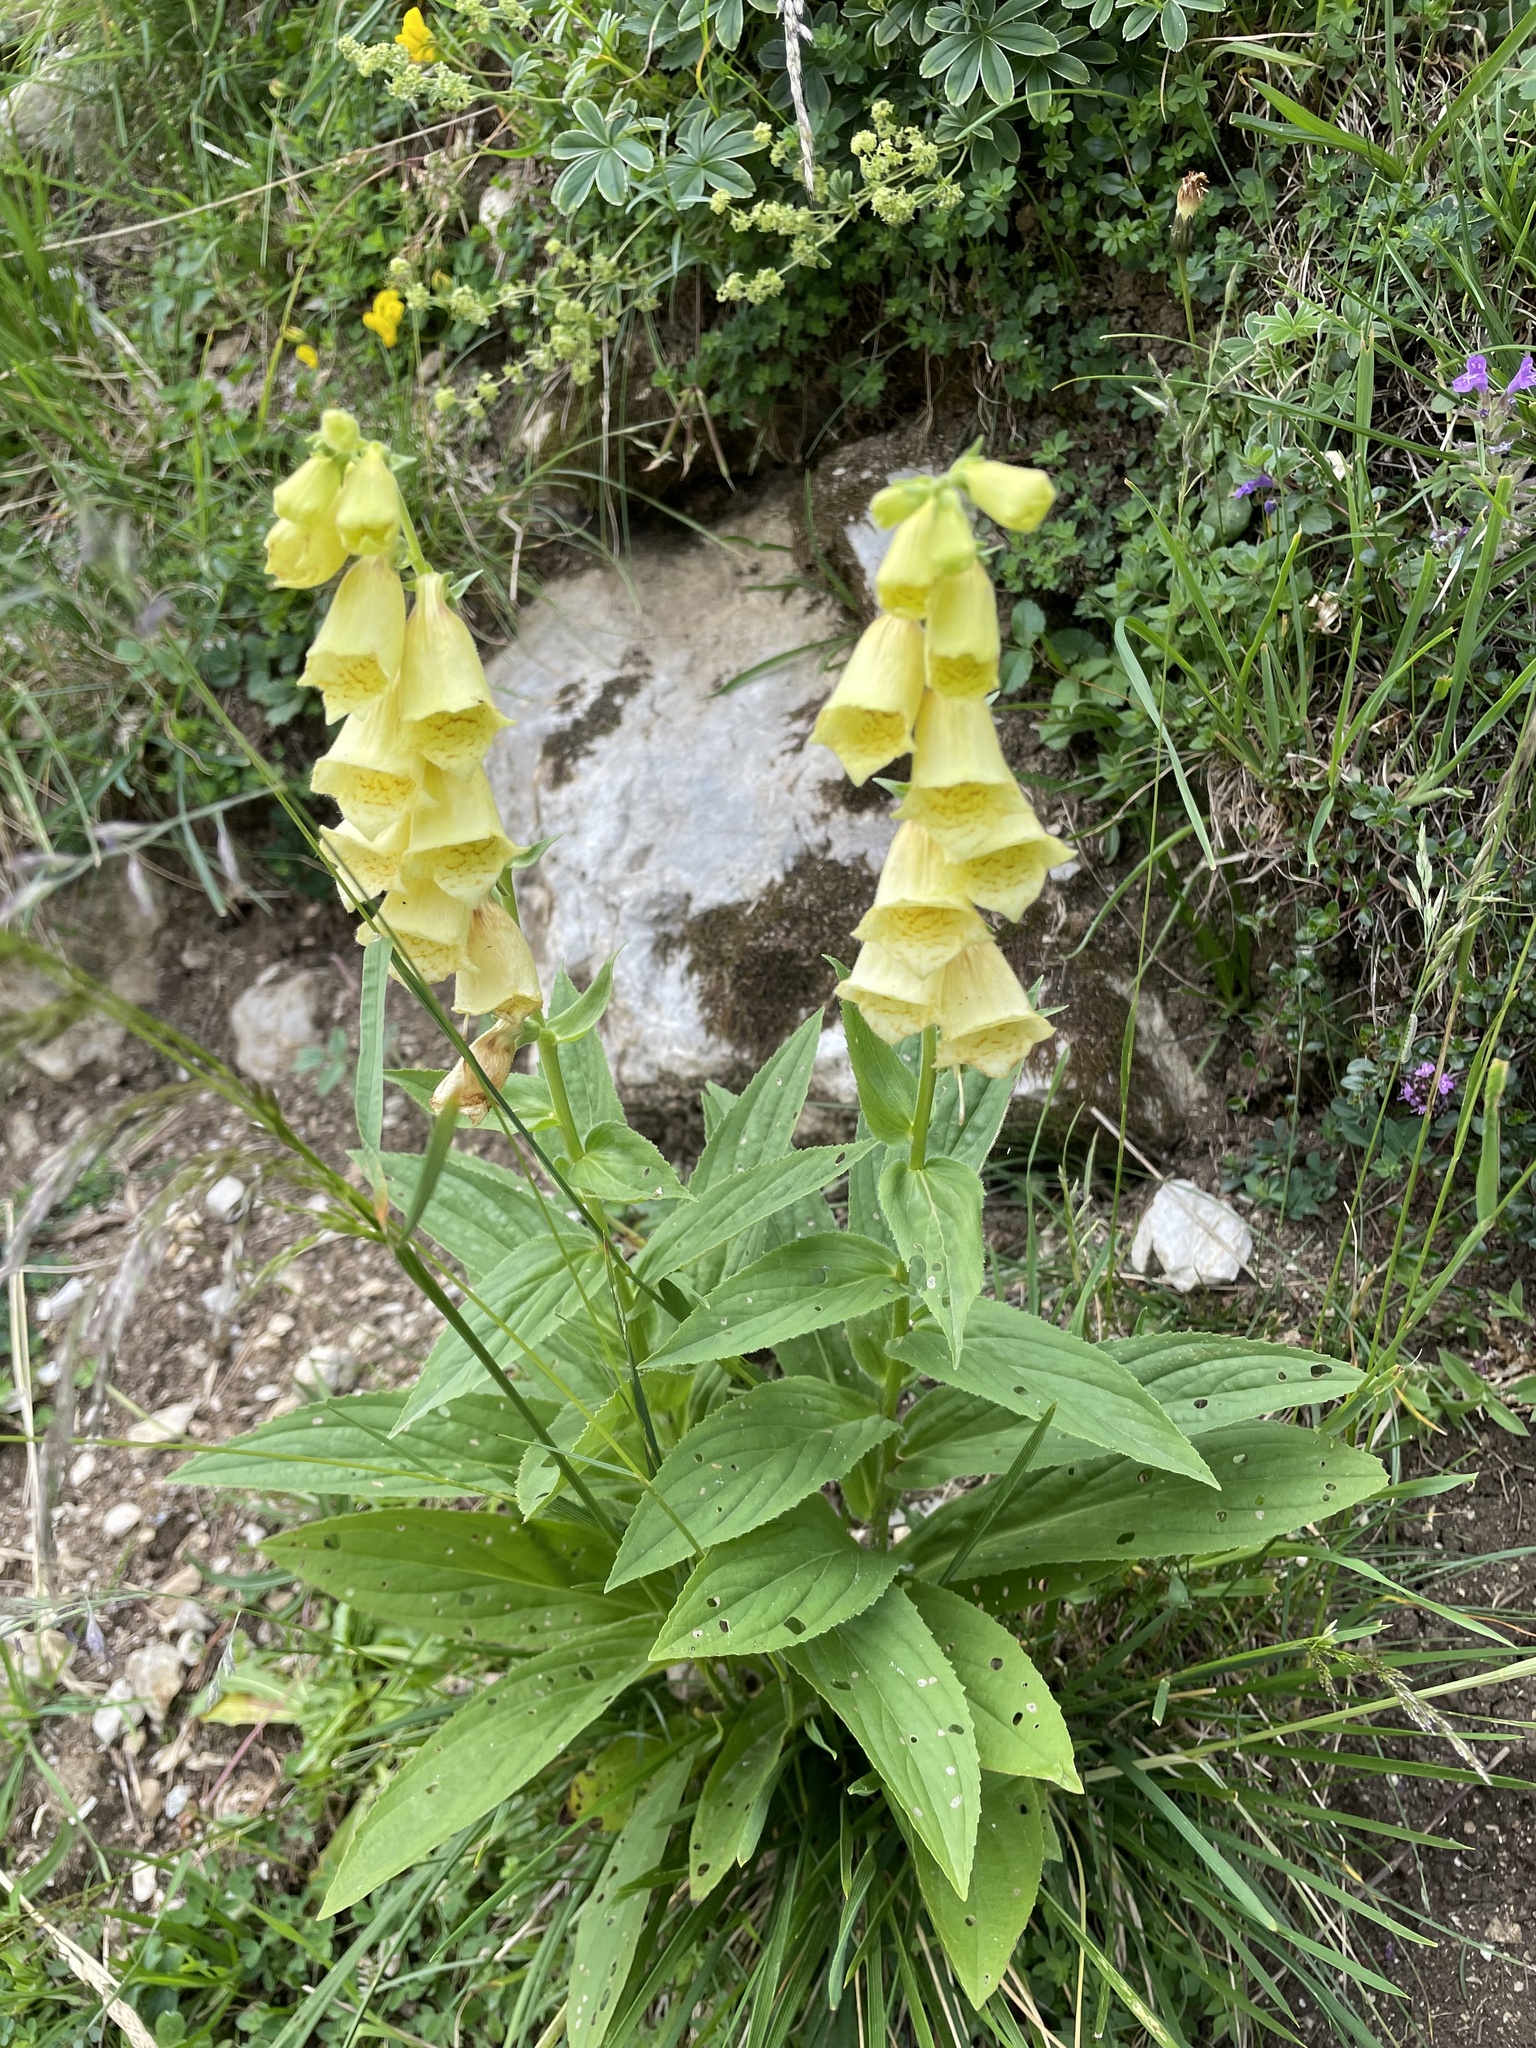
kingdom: Plantae
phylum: Tracheophyta
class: Magnoliopsida
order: Lamiales
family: Plantaginaceae
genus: Digitalis
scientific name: Digitalis grandiflora
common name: Yellow foxglove
